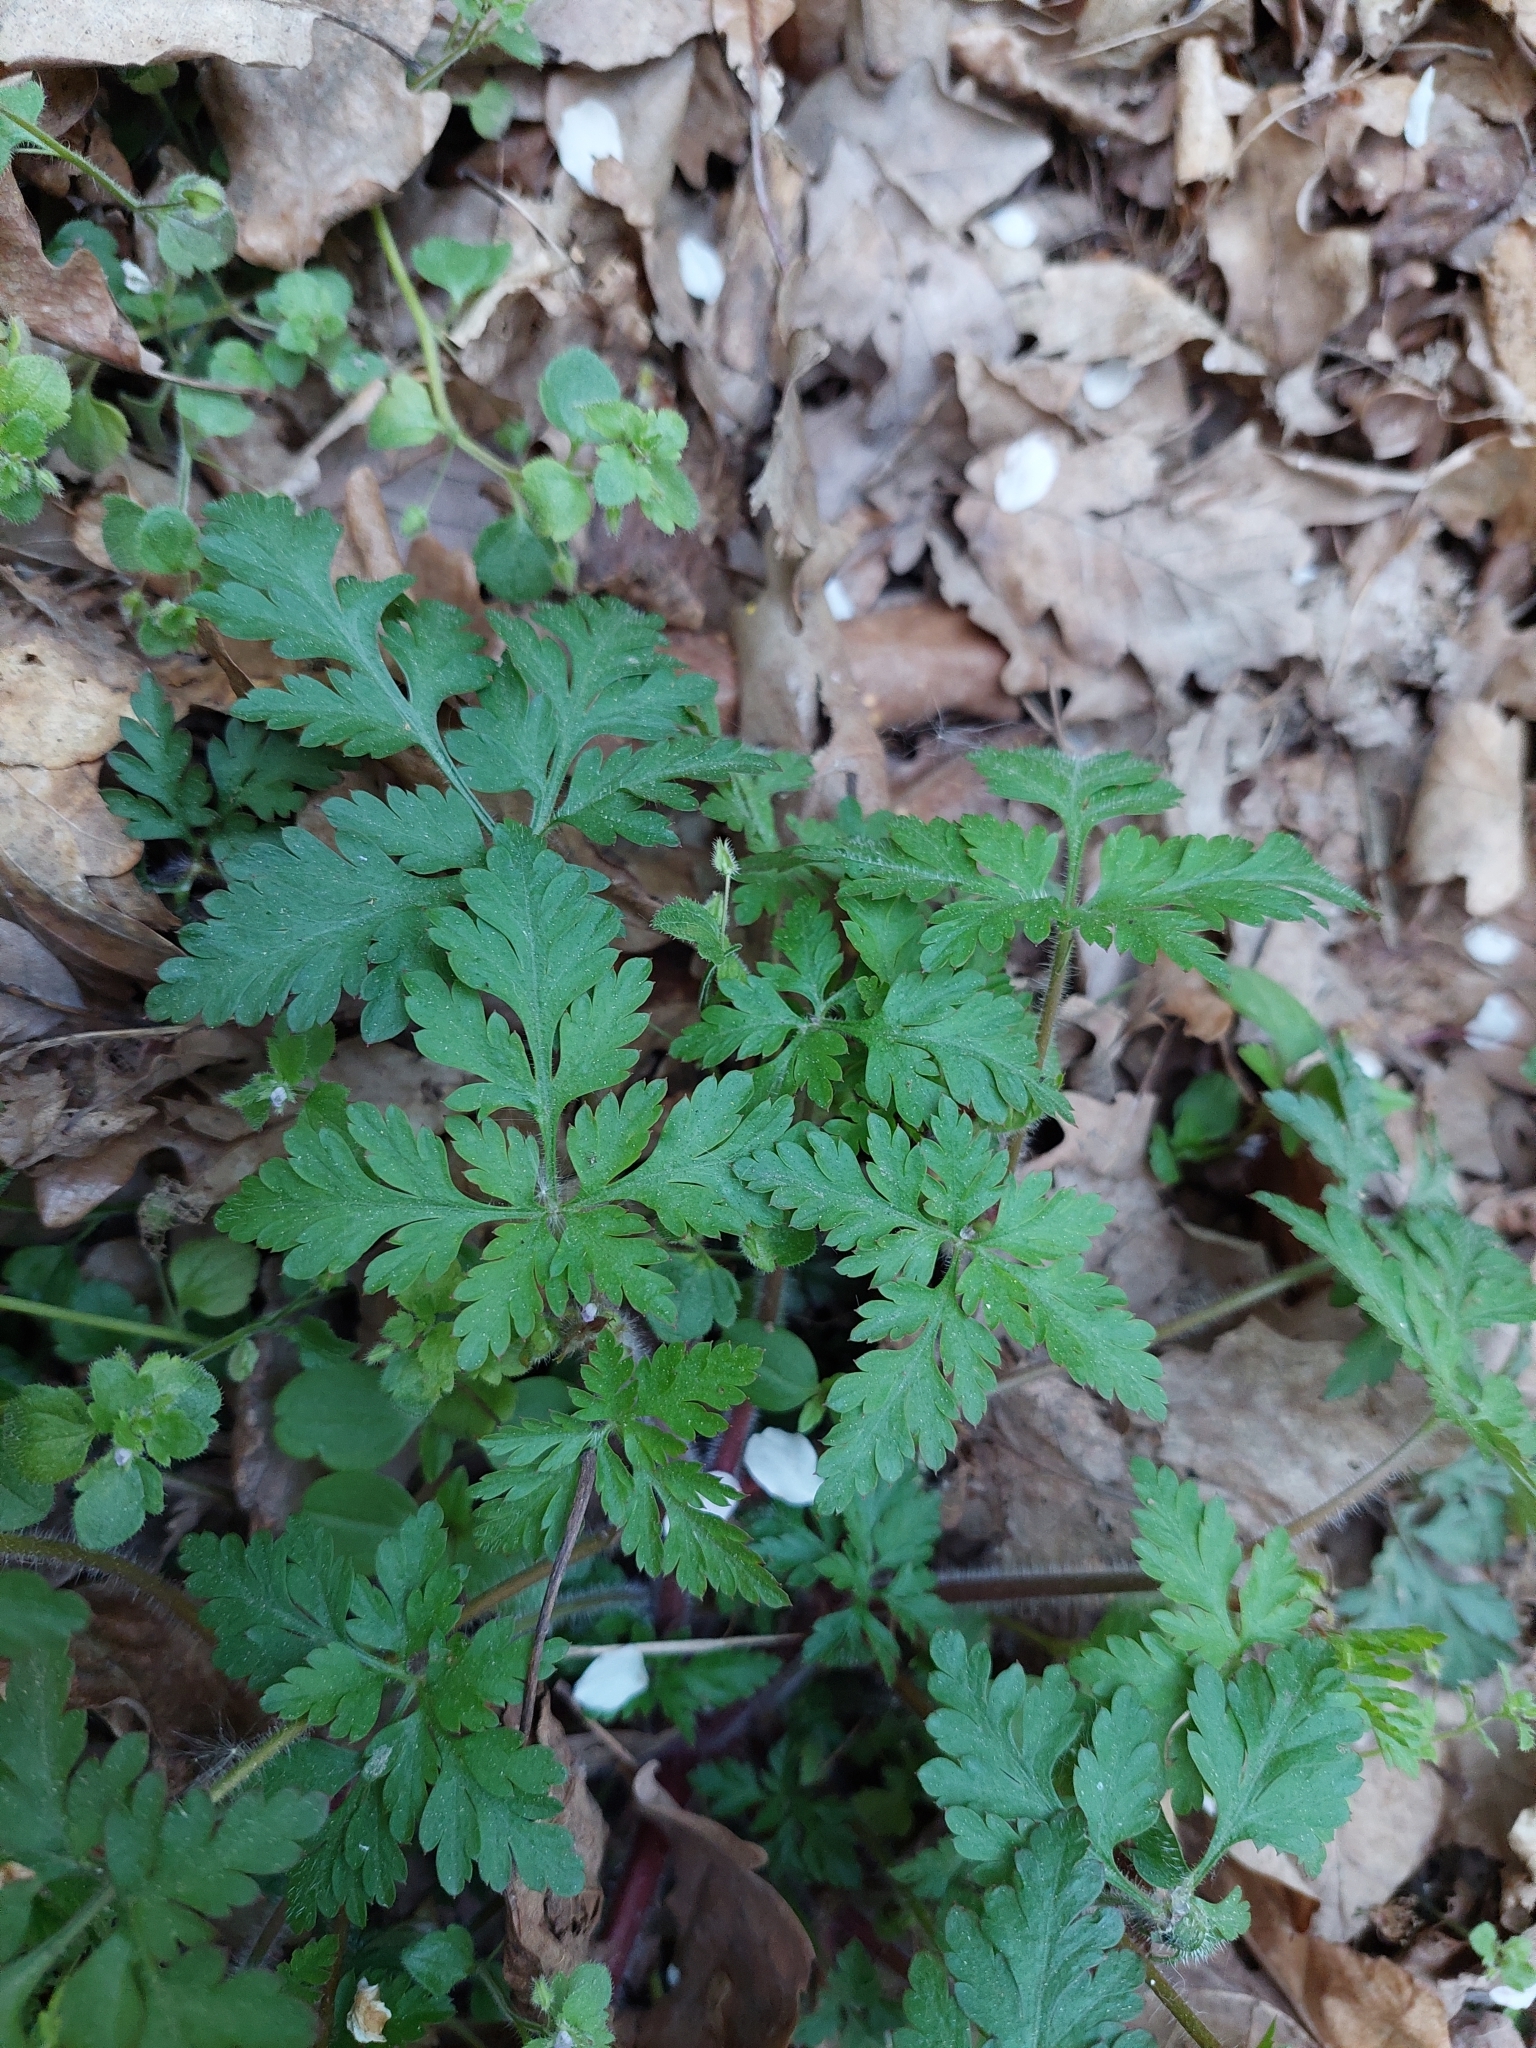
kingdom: Plantae
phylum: Tracheophyta
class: Magnoliopsida
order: Geraniales
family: Geraniaceae
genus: Geranium
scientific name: Geranium robertianum
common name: Herb-robert
